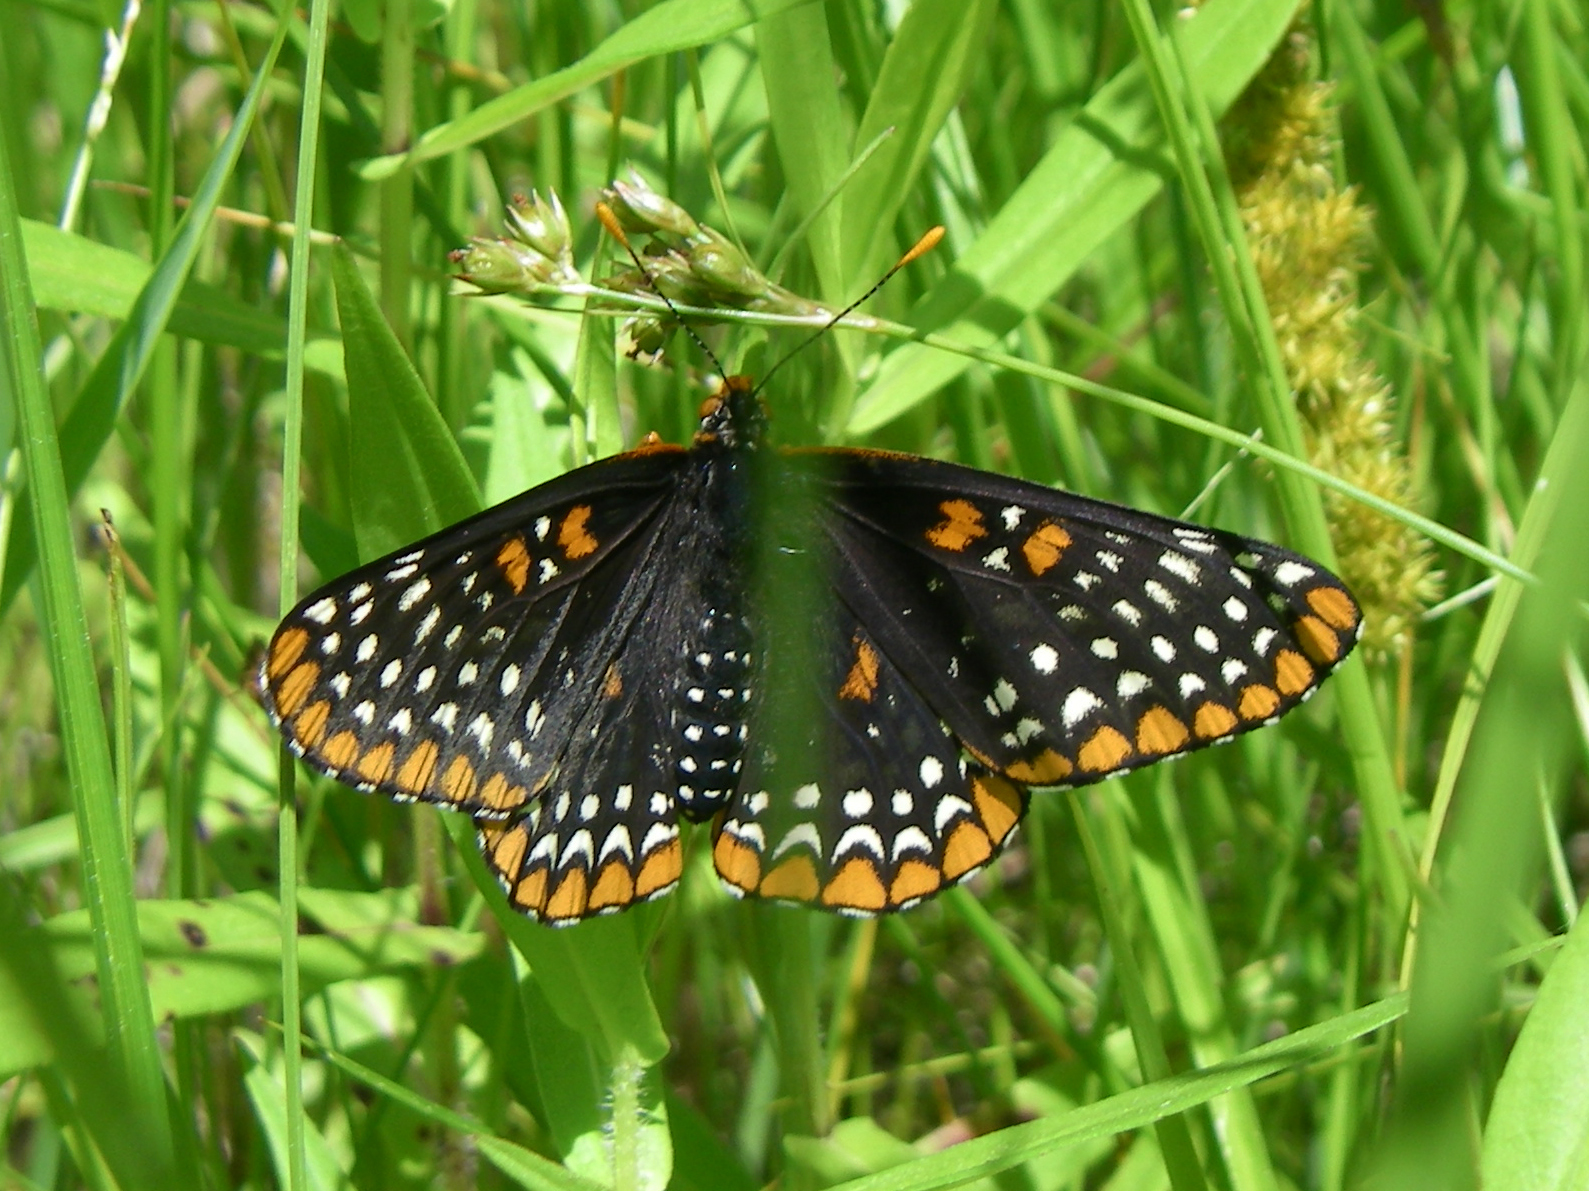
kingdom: Animalia
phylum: Arthropoda
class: Insecta
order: Lepidoptera
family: Nymphalidae
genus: Euphydryas
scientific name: Euphydryas phaeton
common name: Baltimore checkerspot
